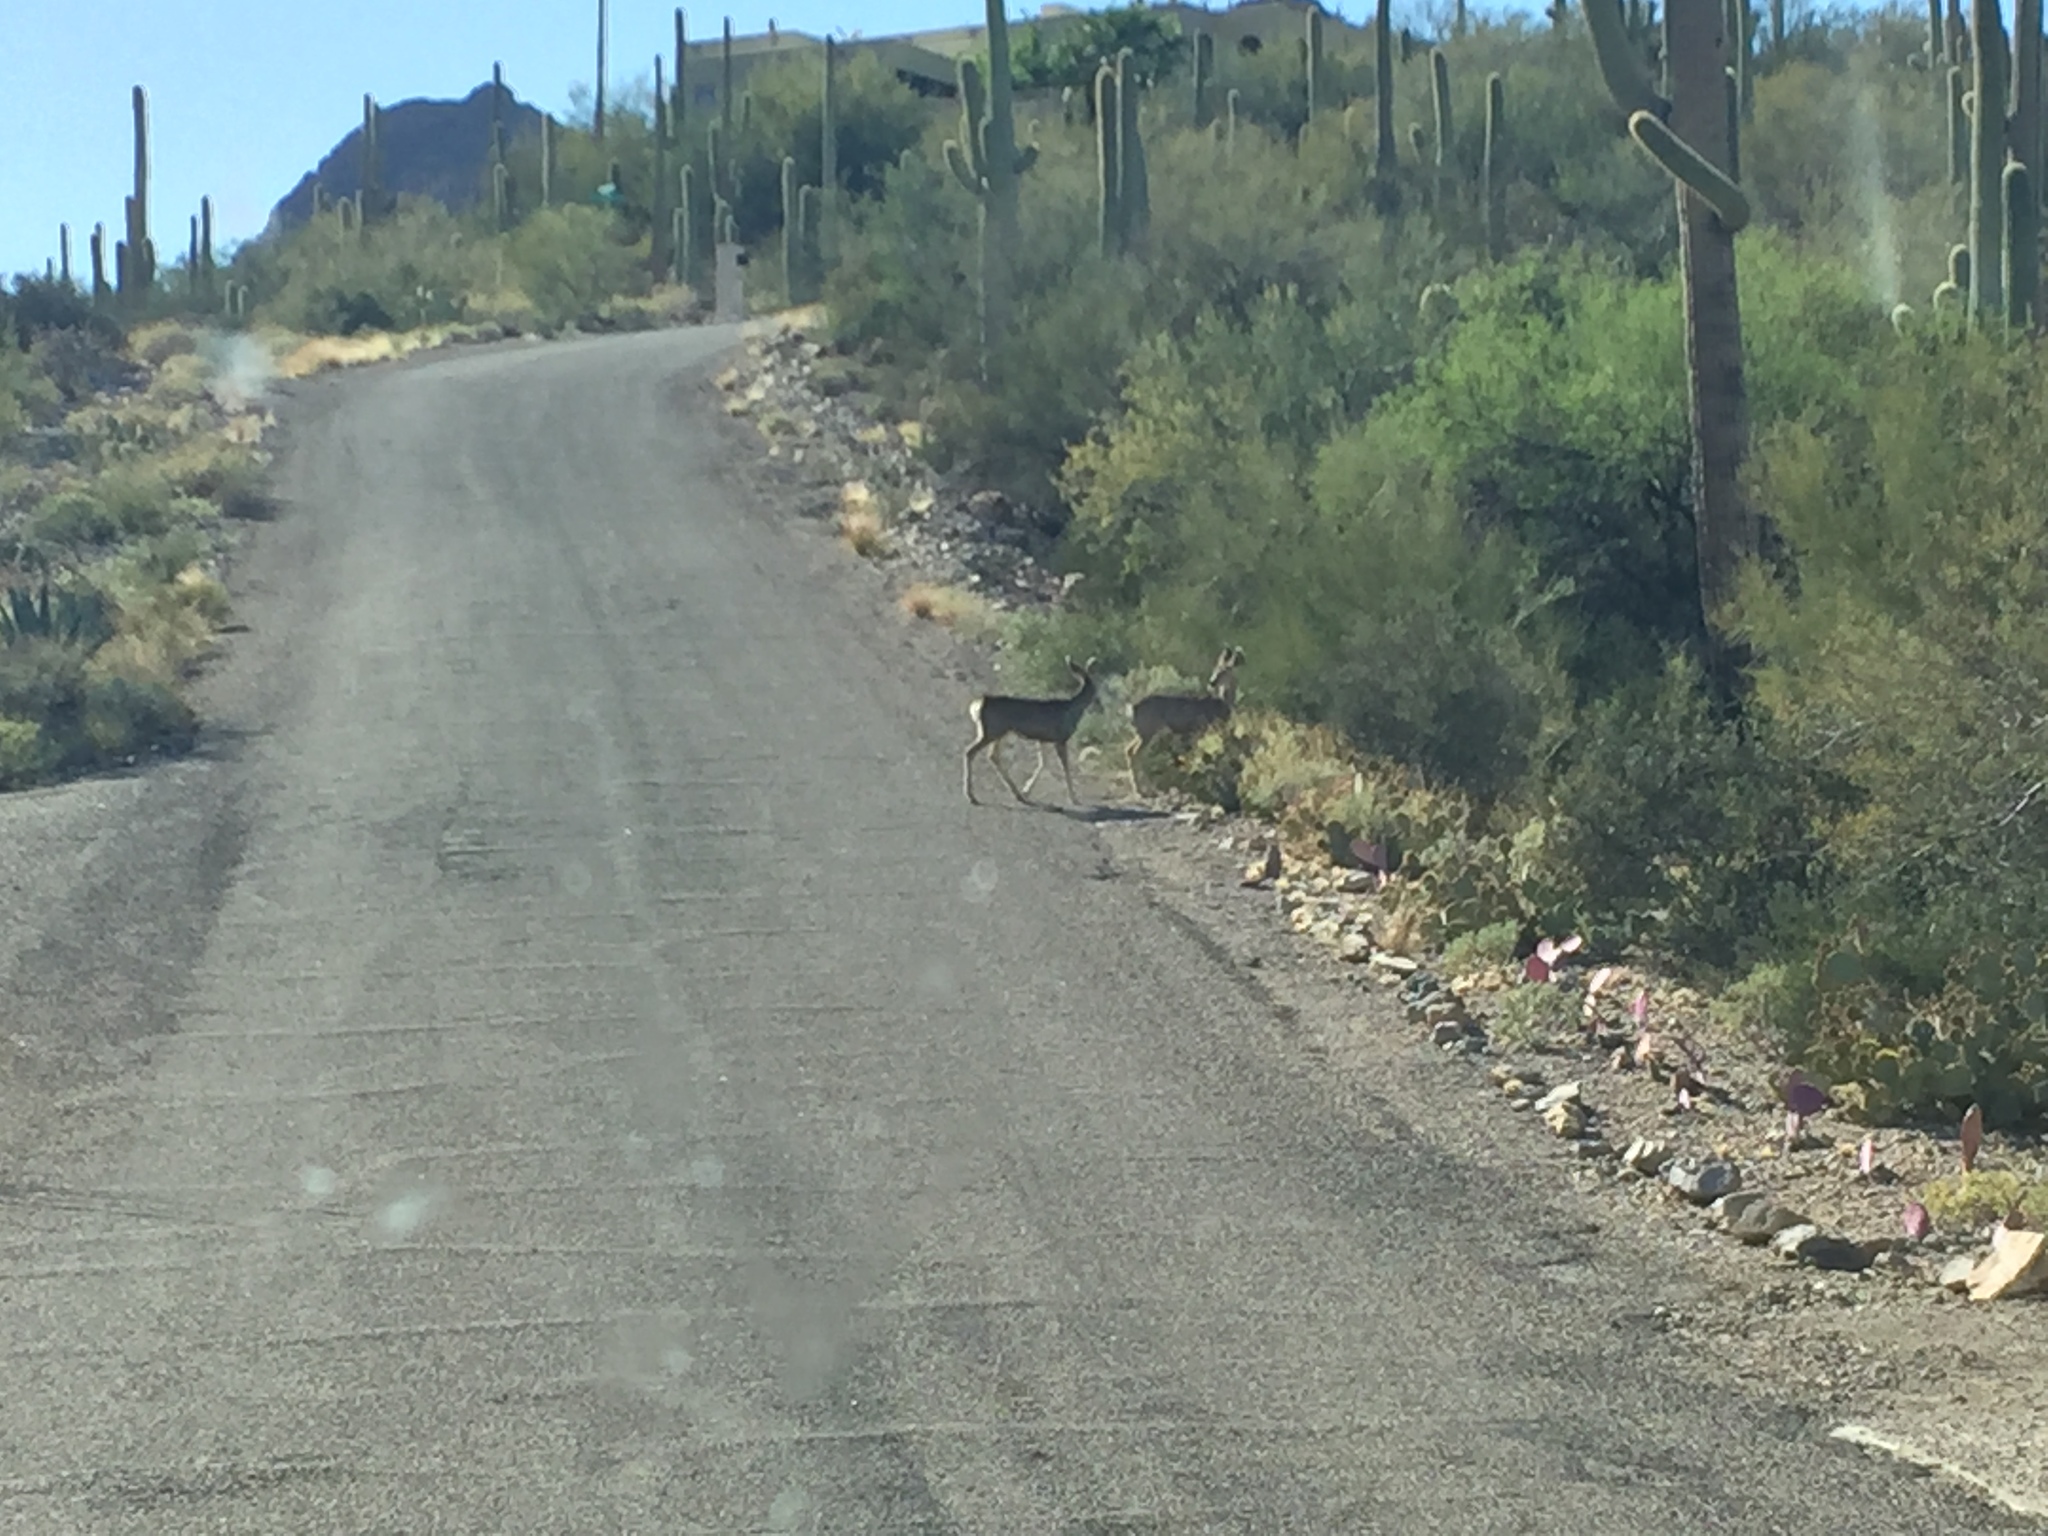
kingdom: Animalia
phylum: Chordata
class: Mammalia
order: Artiodactyla
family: Cervidae
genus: Odocoileus
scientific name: Odocoileus hemionus
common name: Mule deer
